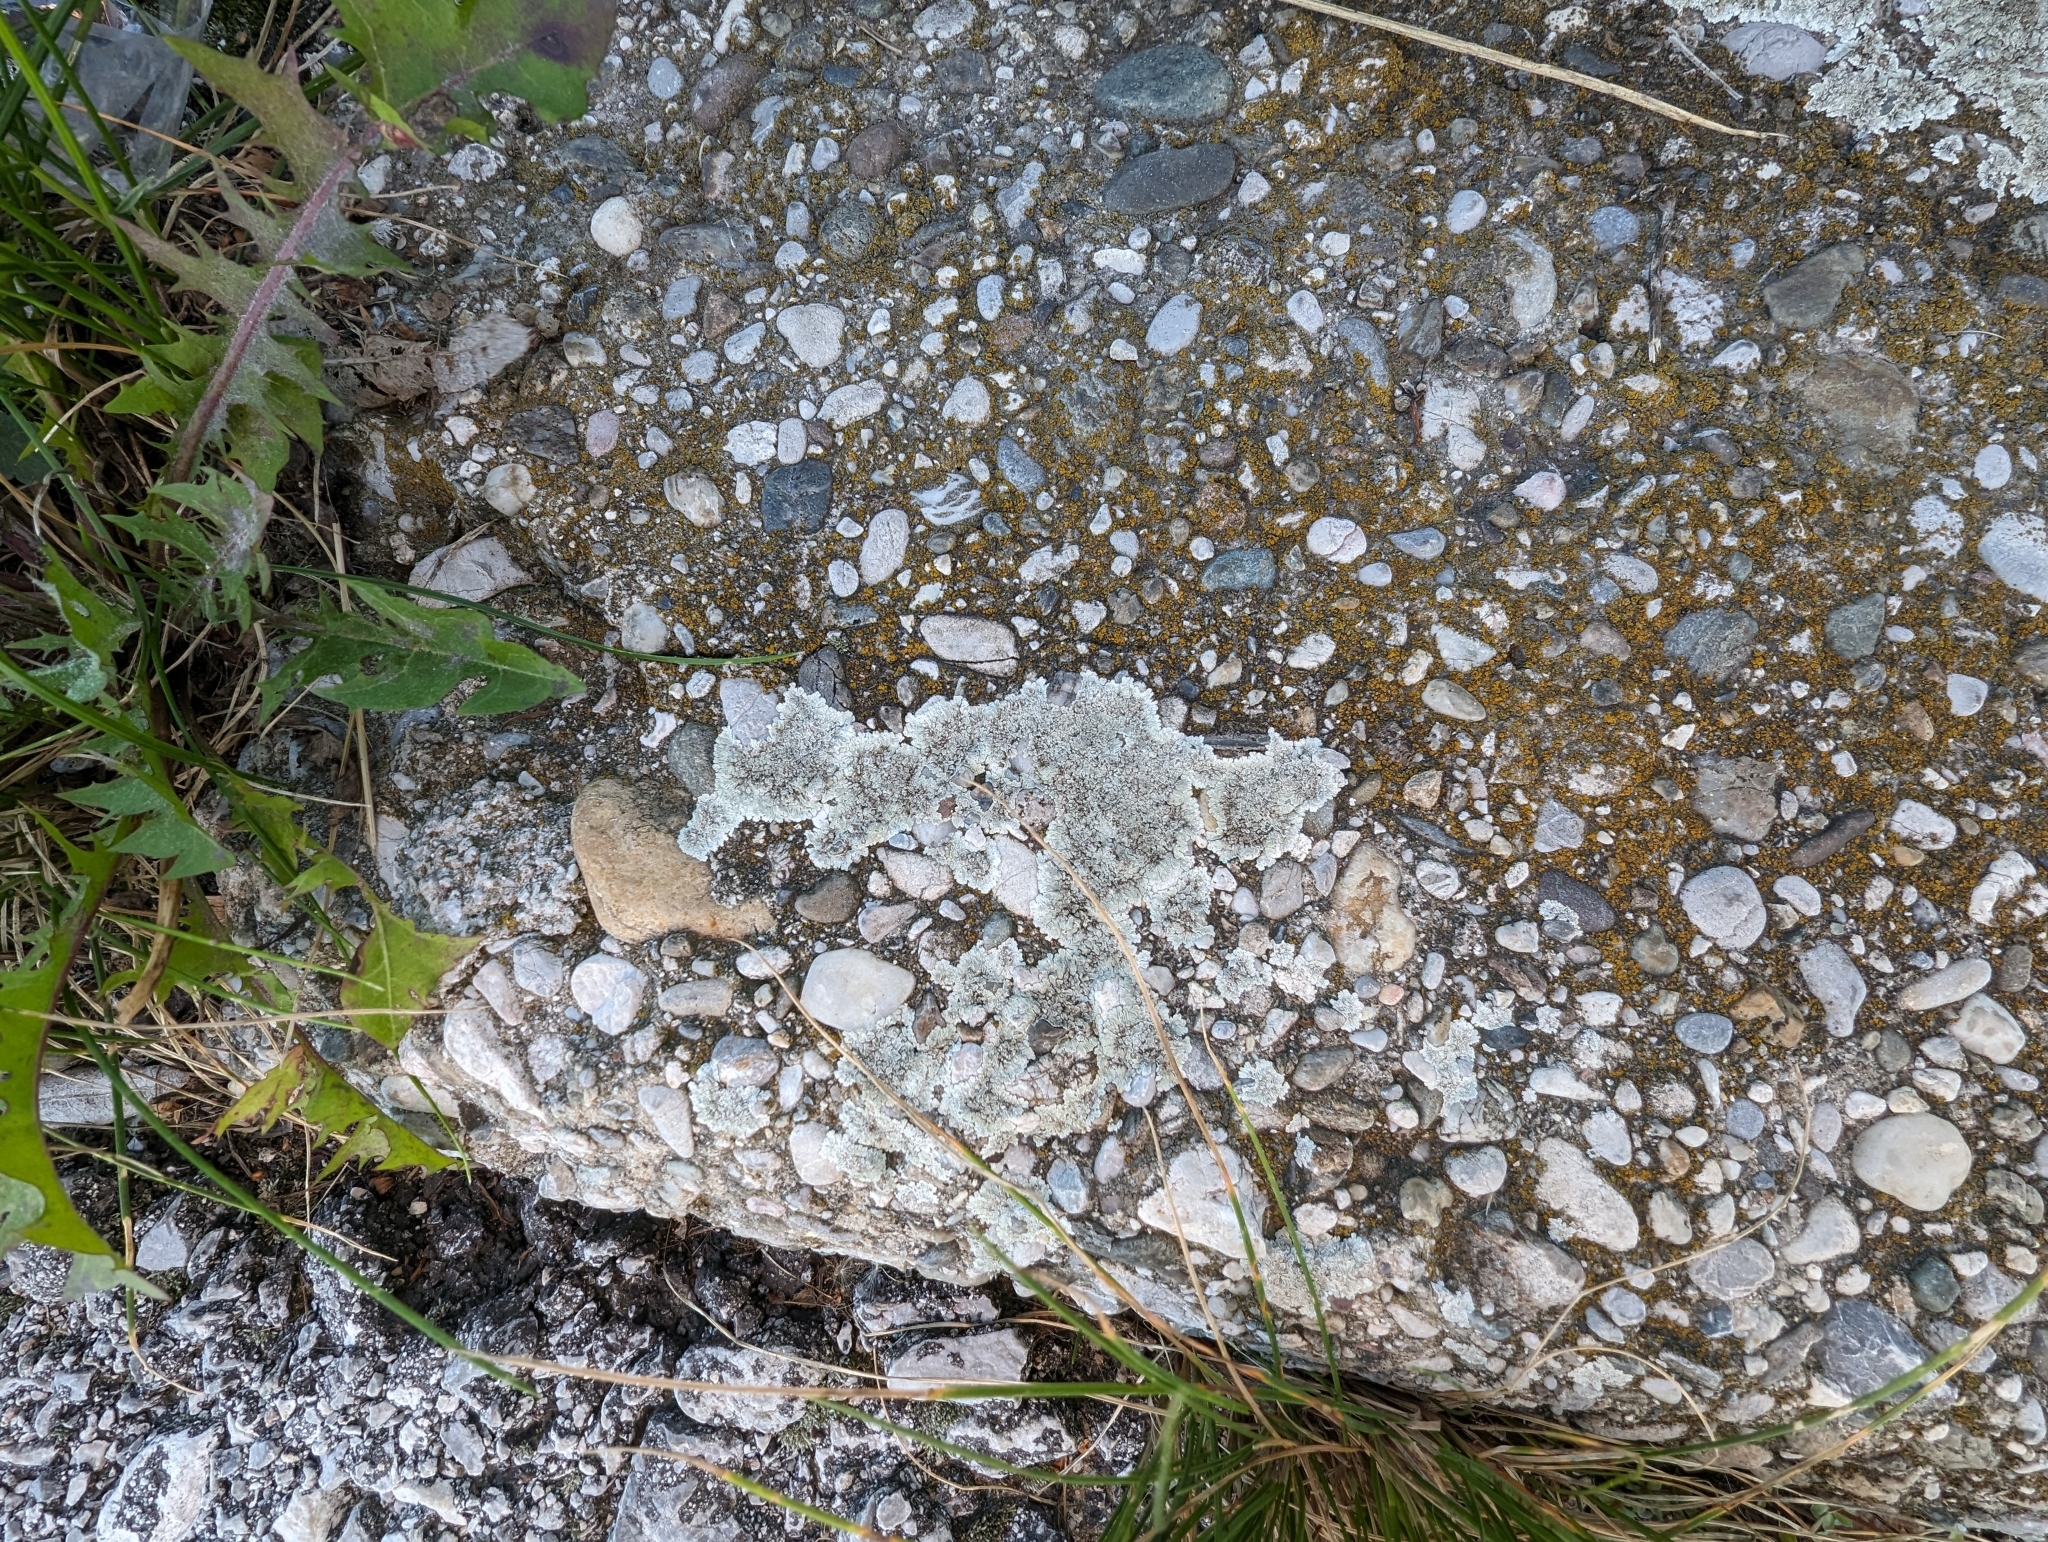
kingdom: Fungi
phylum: Ascomycota
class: Lecanoromycetes
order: Lecanorales
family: Lecanoraceae
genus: Protoparmeliopsis
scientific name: Protoparmeliopsis muralis
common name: Stonewall rim lichen
